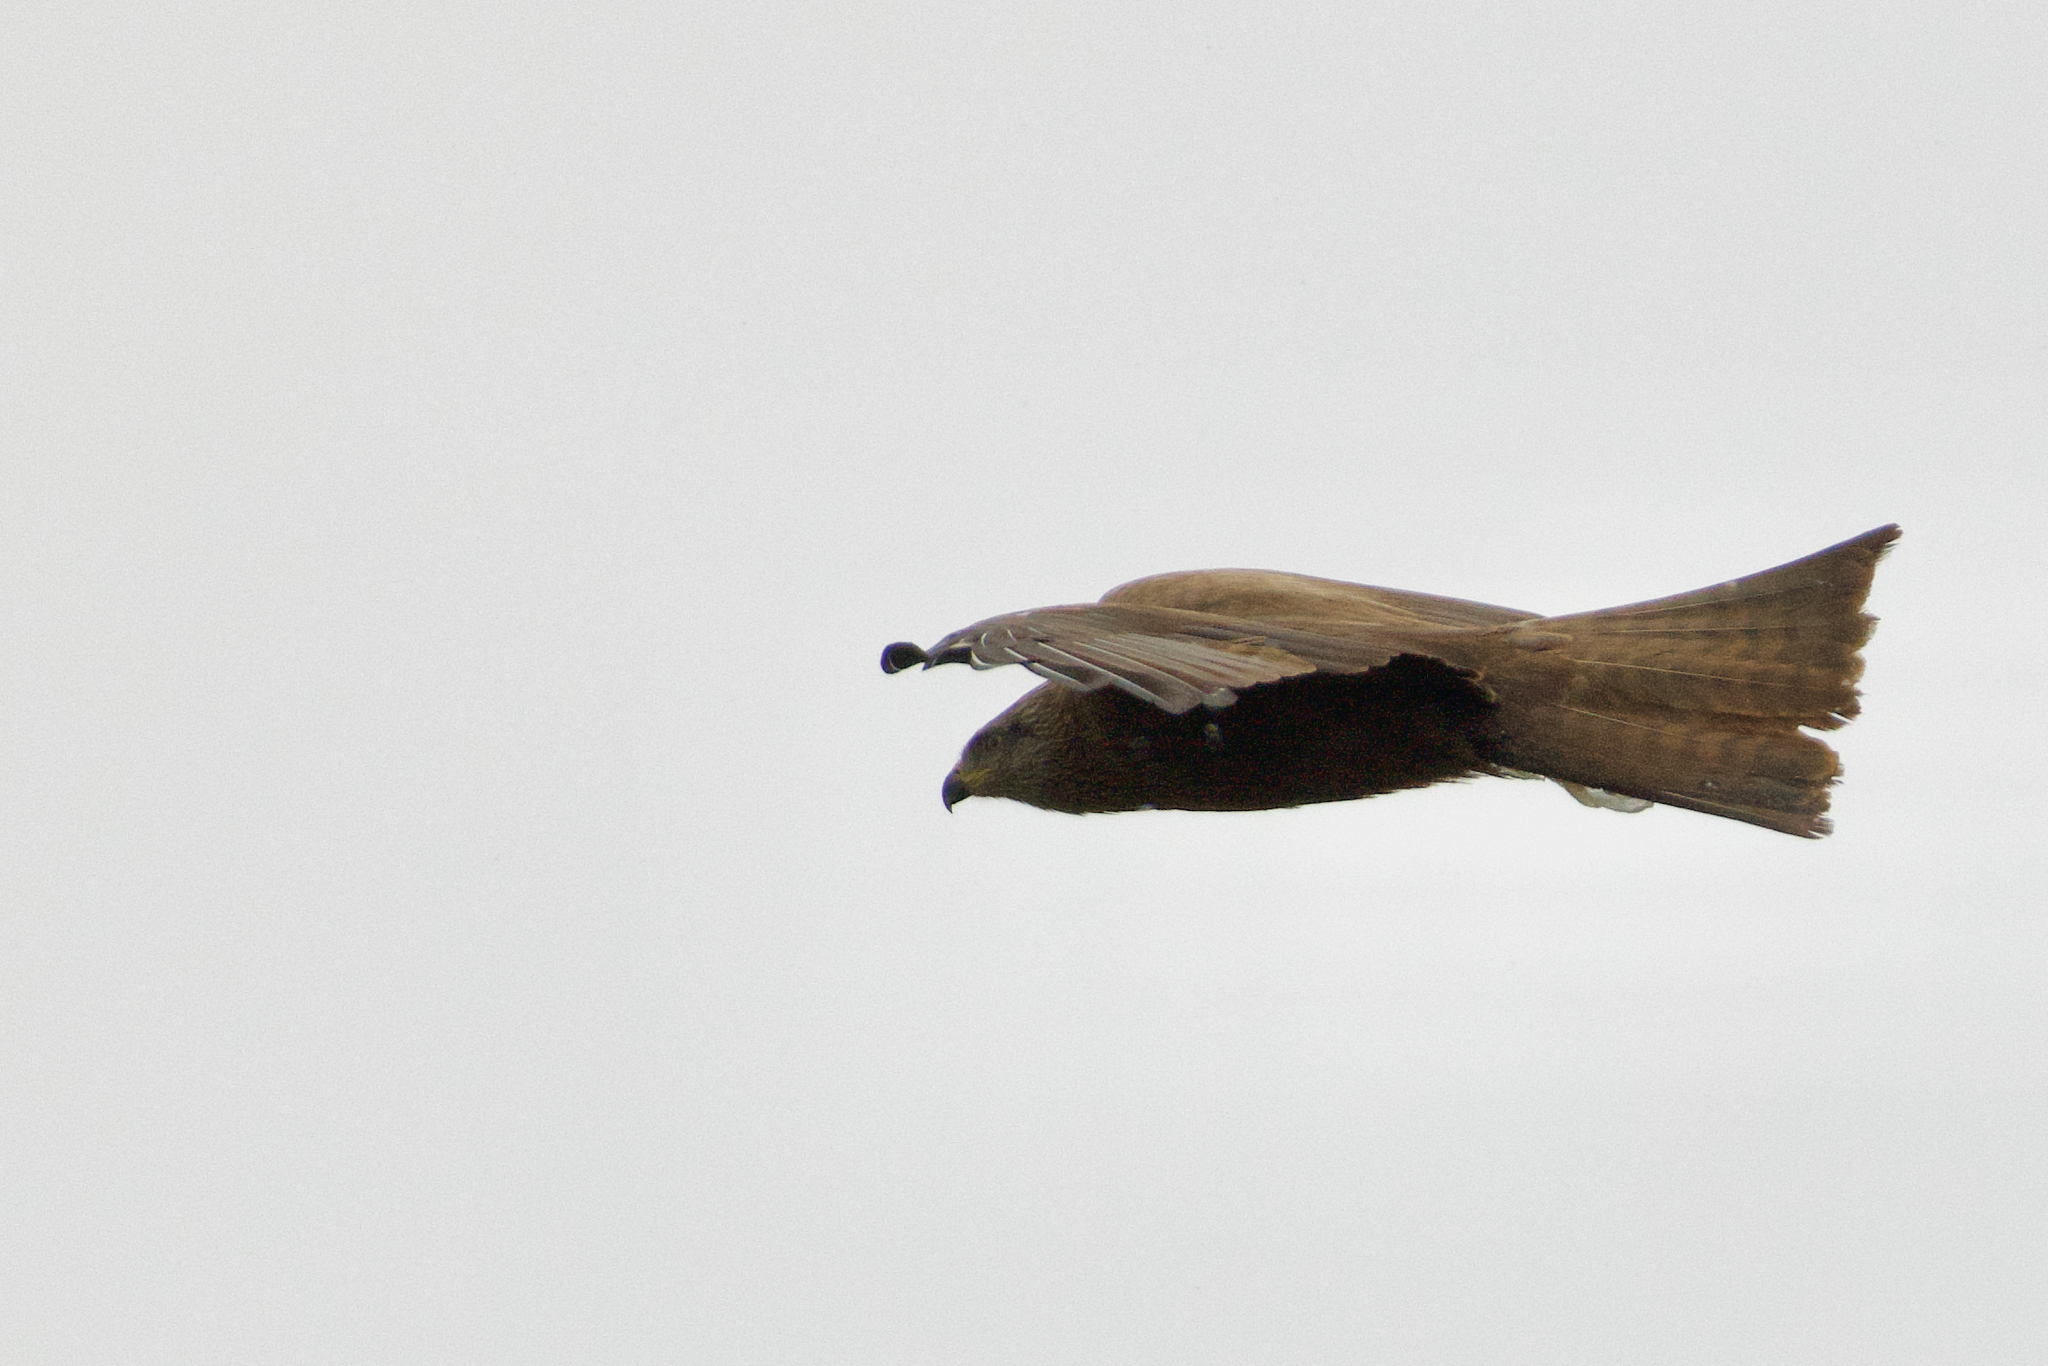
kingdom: Animalia
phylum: Chordata
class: Aves
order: Accipitriformes
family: Accipitridae
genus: Milvus
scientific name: Milvus migrans
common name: Black kite
